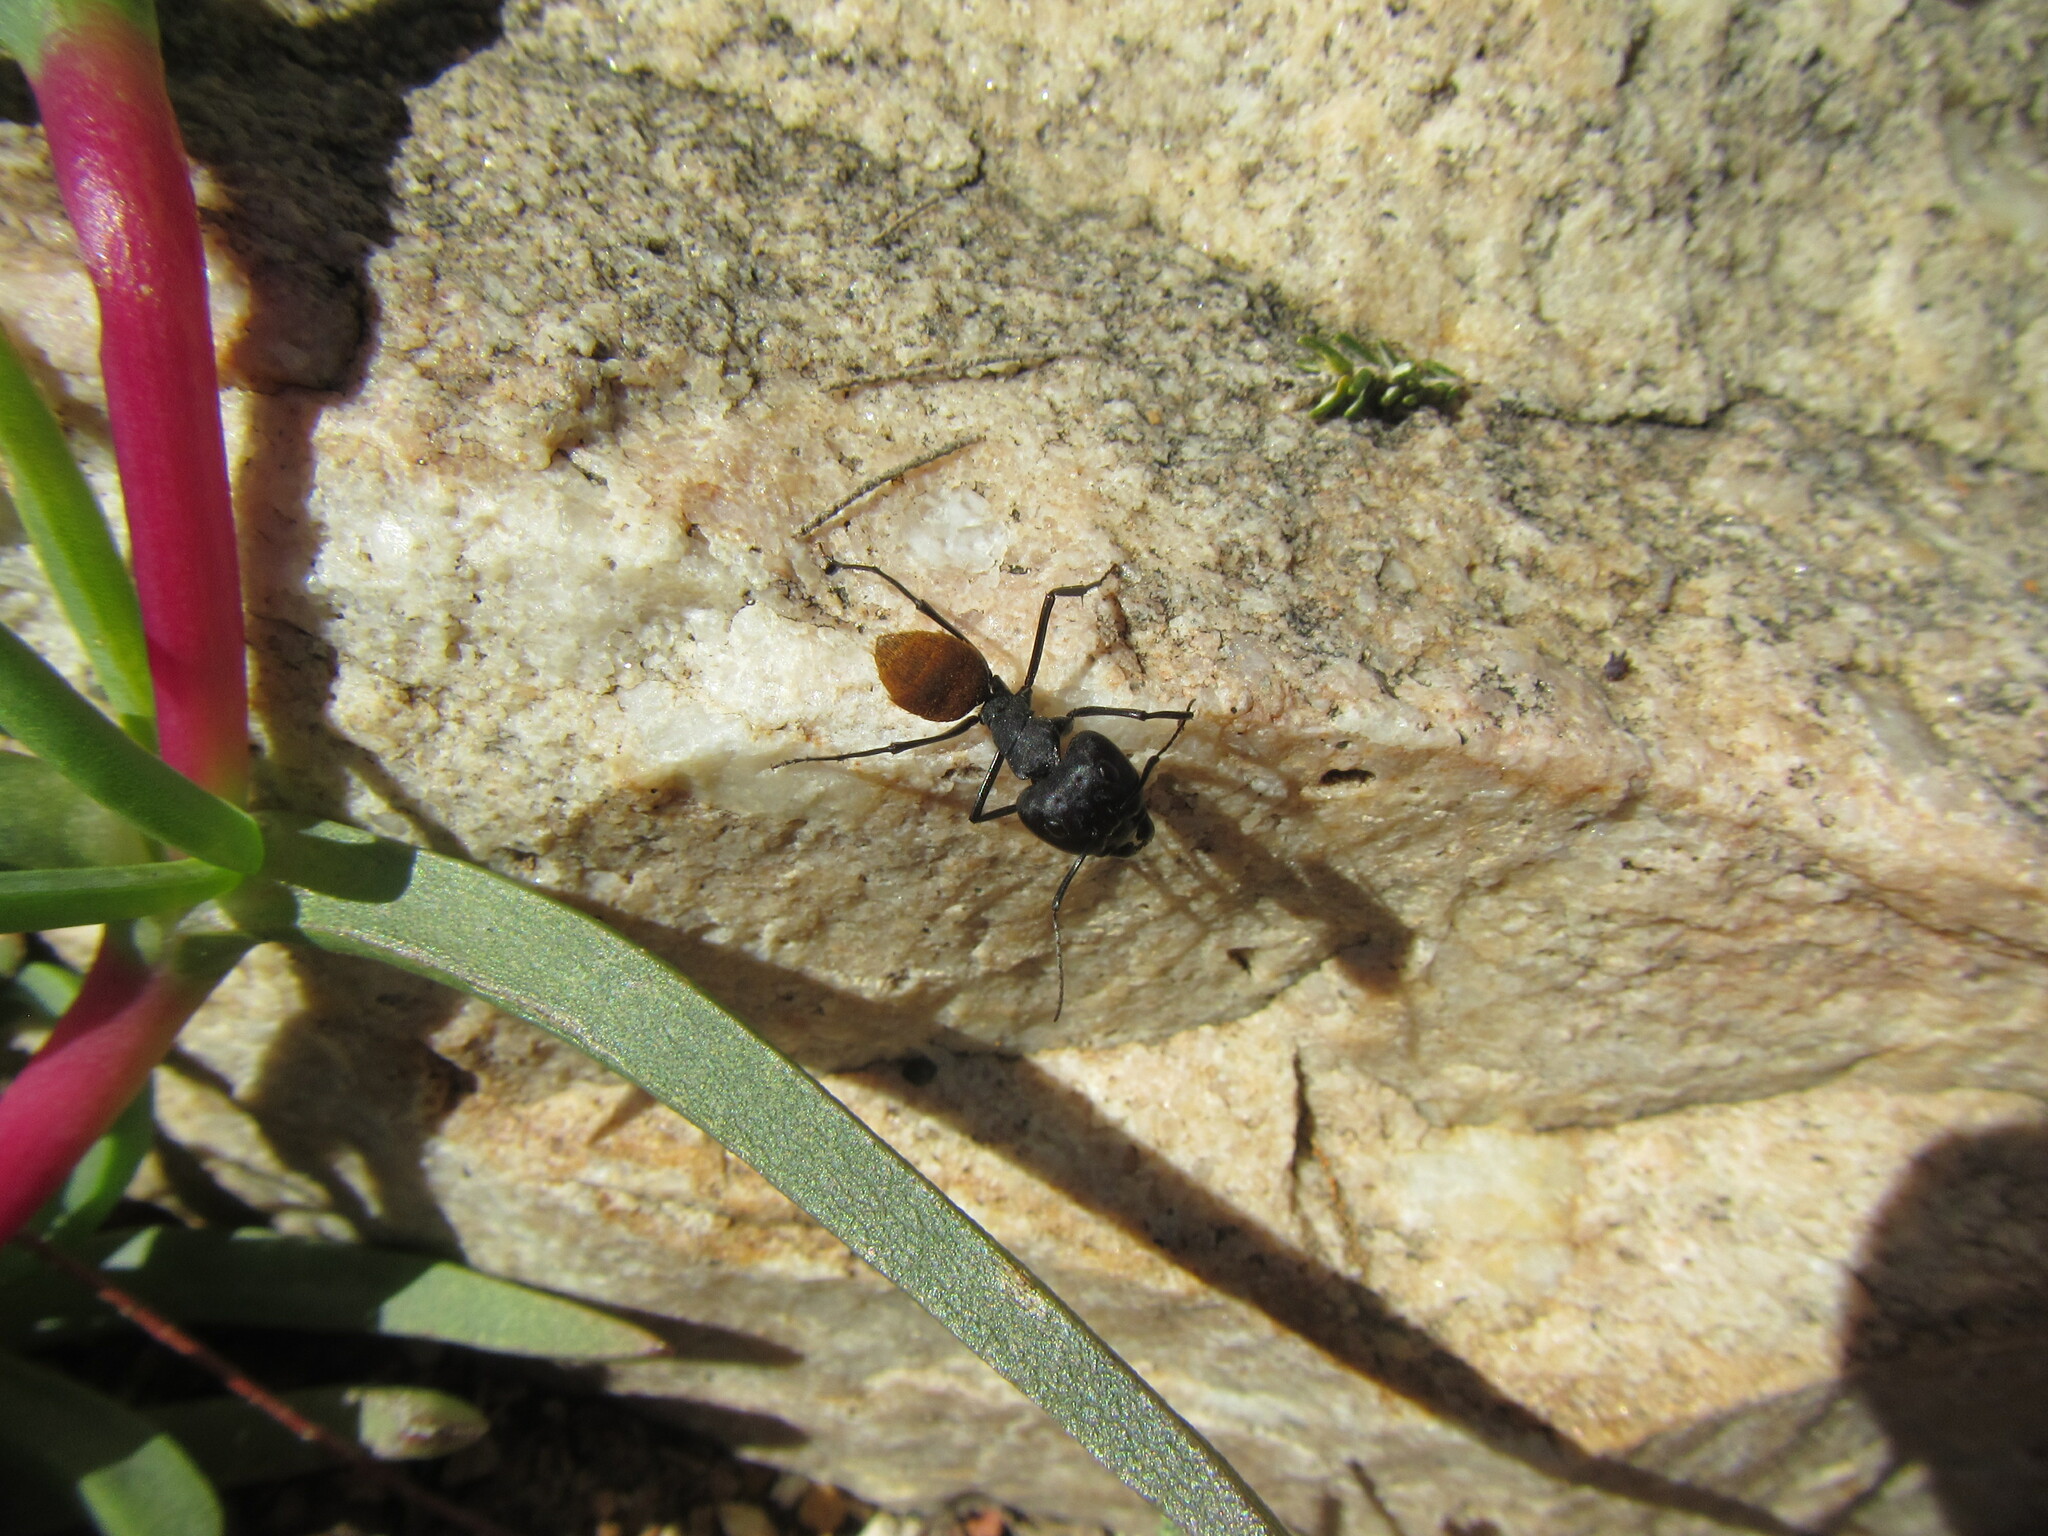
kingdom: Animalia
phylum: Arthropoda
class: Insecta
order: Hymenoptera
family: Formicidae
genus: Camponotus
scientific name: Camponotus fulvopilosus
